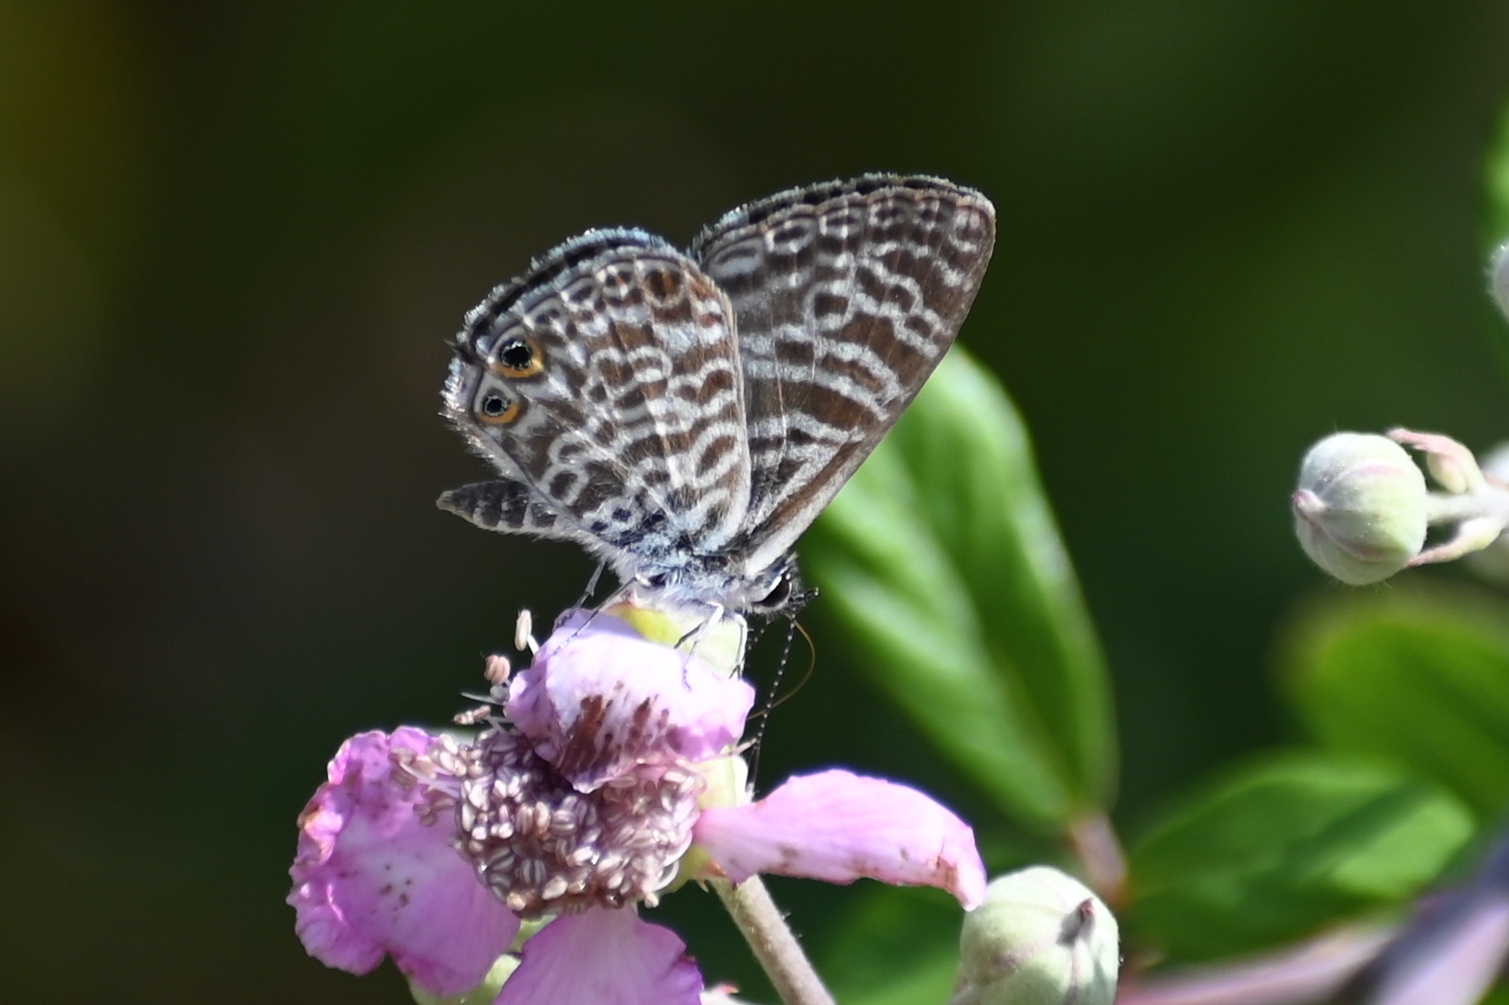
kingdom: Animalia
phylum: Arthropoda
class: Insecta
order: Lepidoptera
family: Lycaenidae
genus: Leptotes
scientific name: Leptotes pirithous
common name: Lang's short-tailed blue
